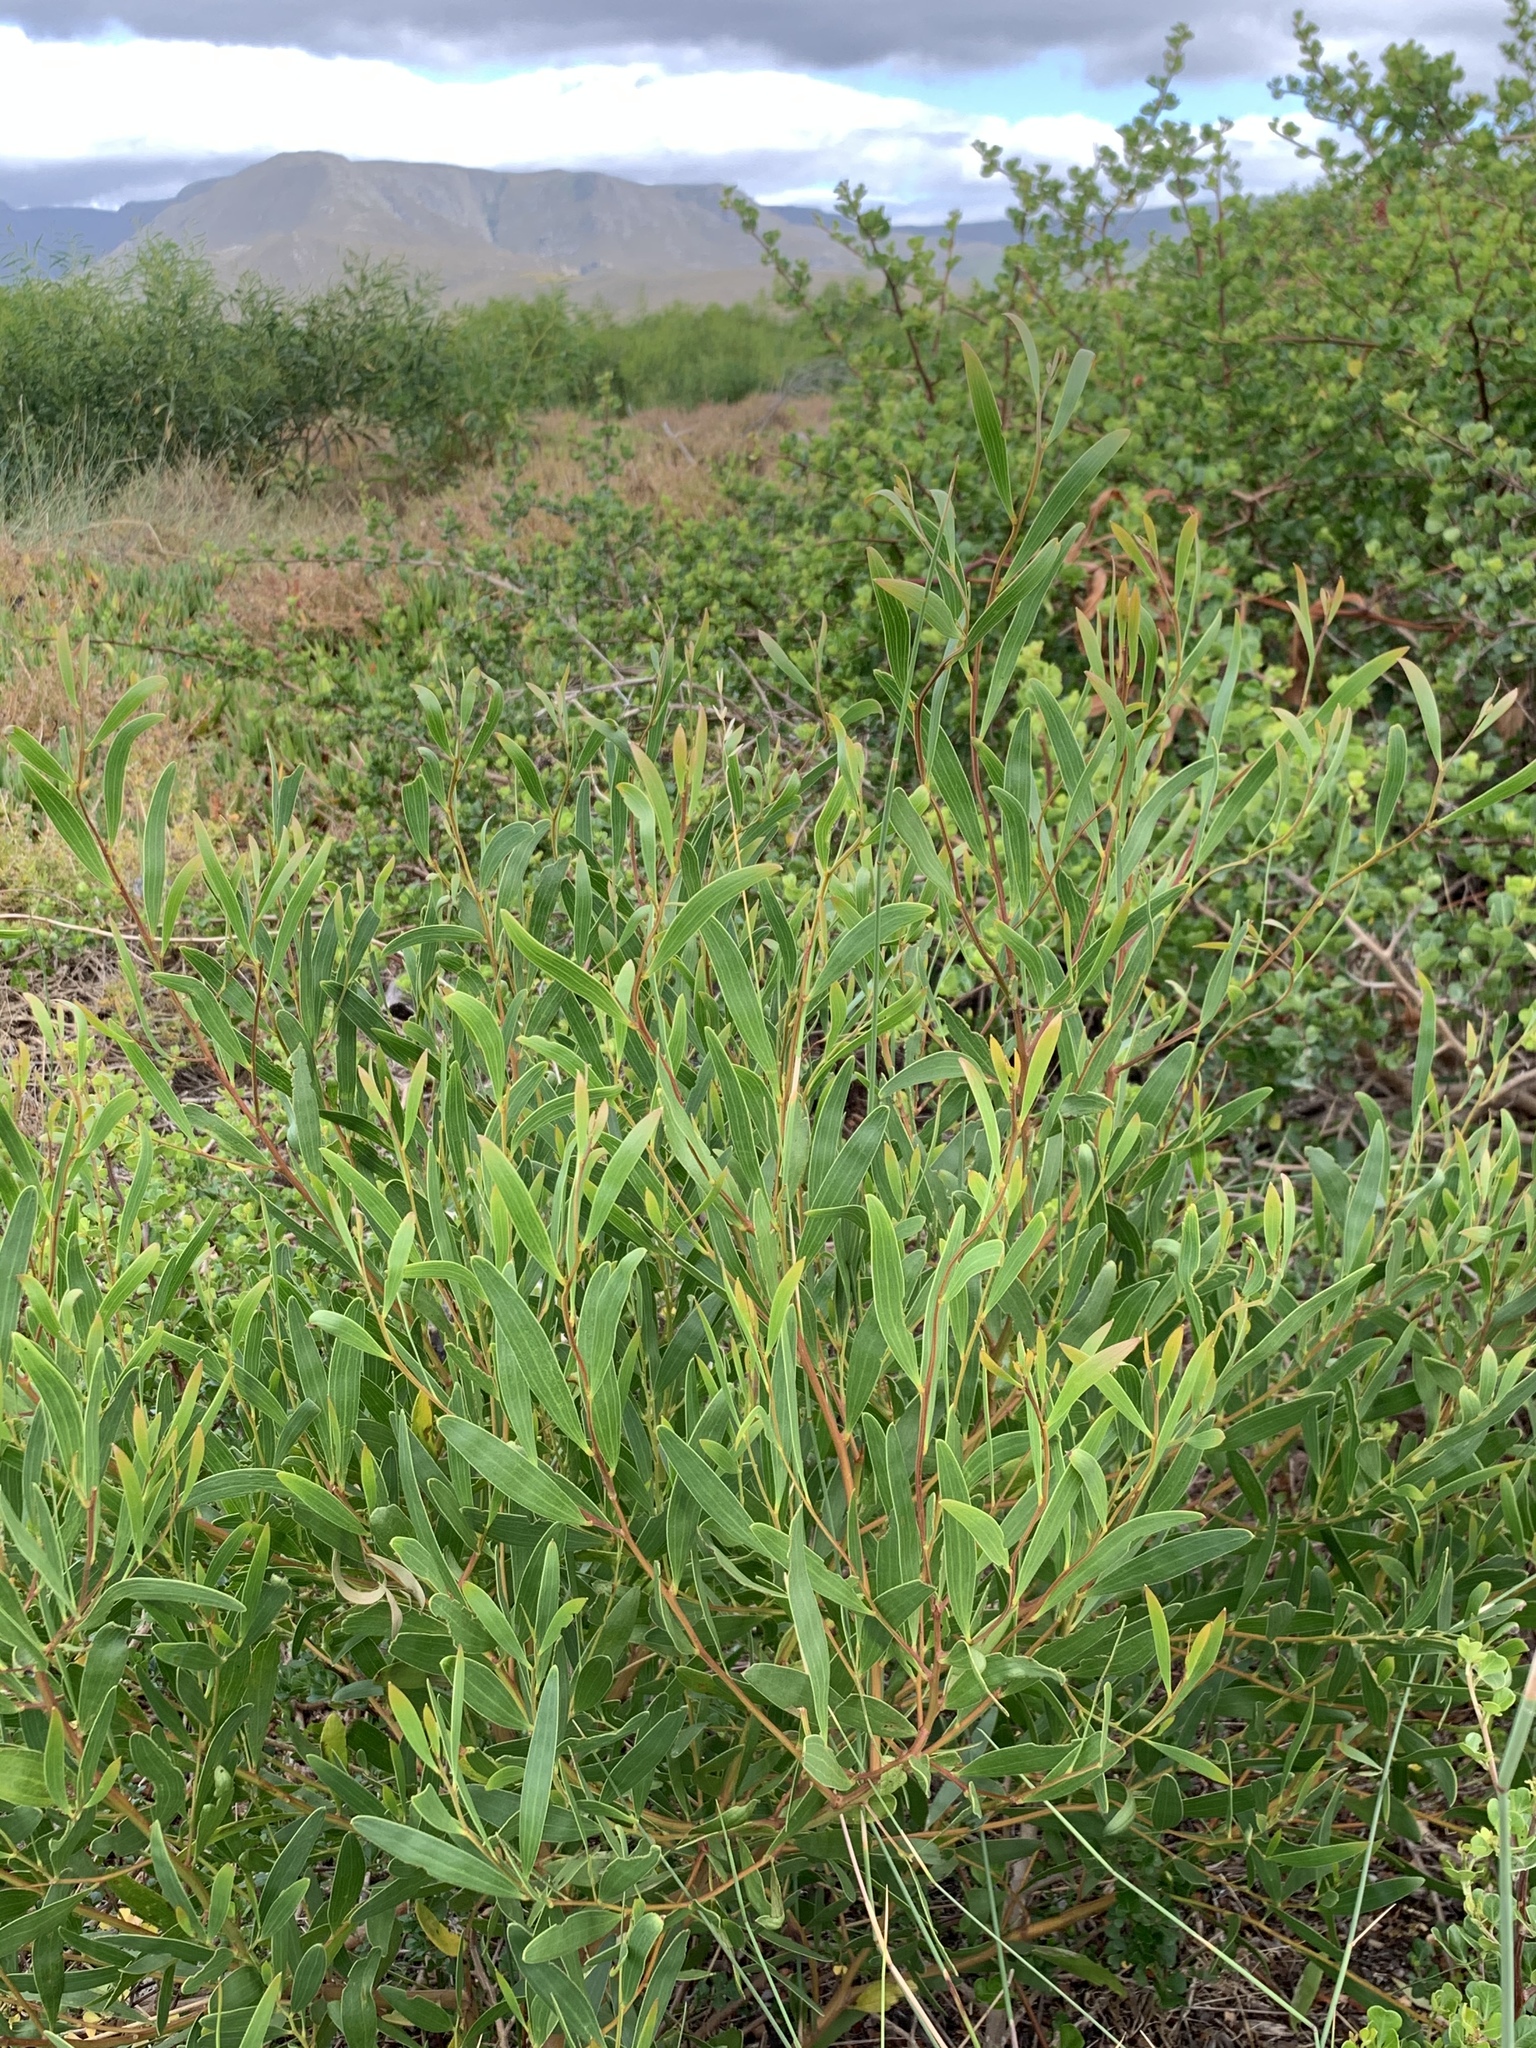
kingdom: Plantae
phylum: Tracheophyta
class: Magnoliopsida
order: Fabales
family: Fabaceae
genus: Acacia
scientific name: Acacia cyclops
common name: Coastal wattle
